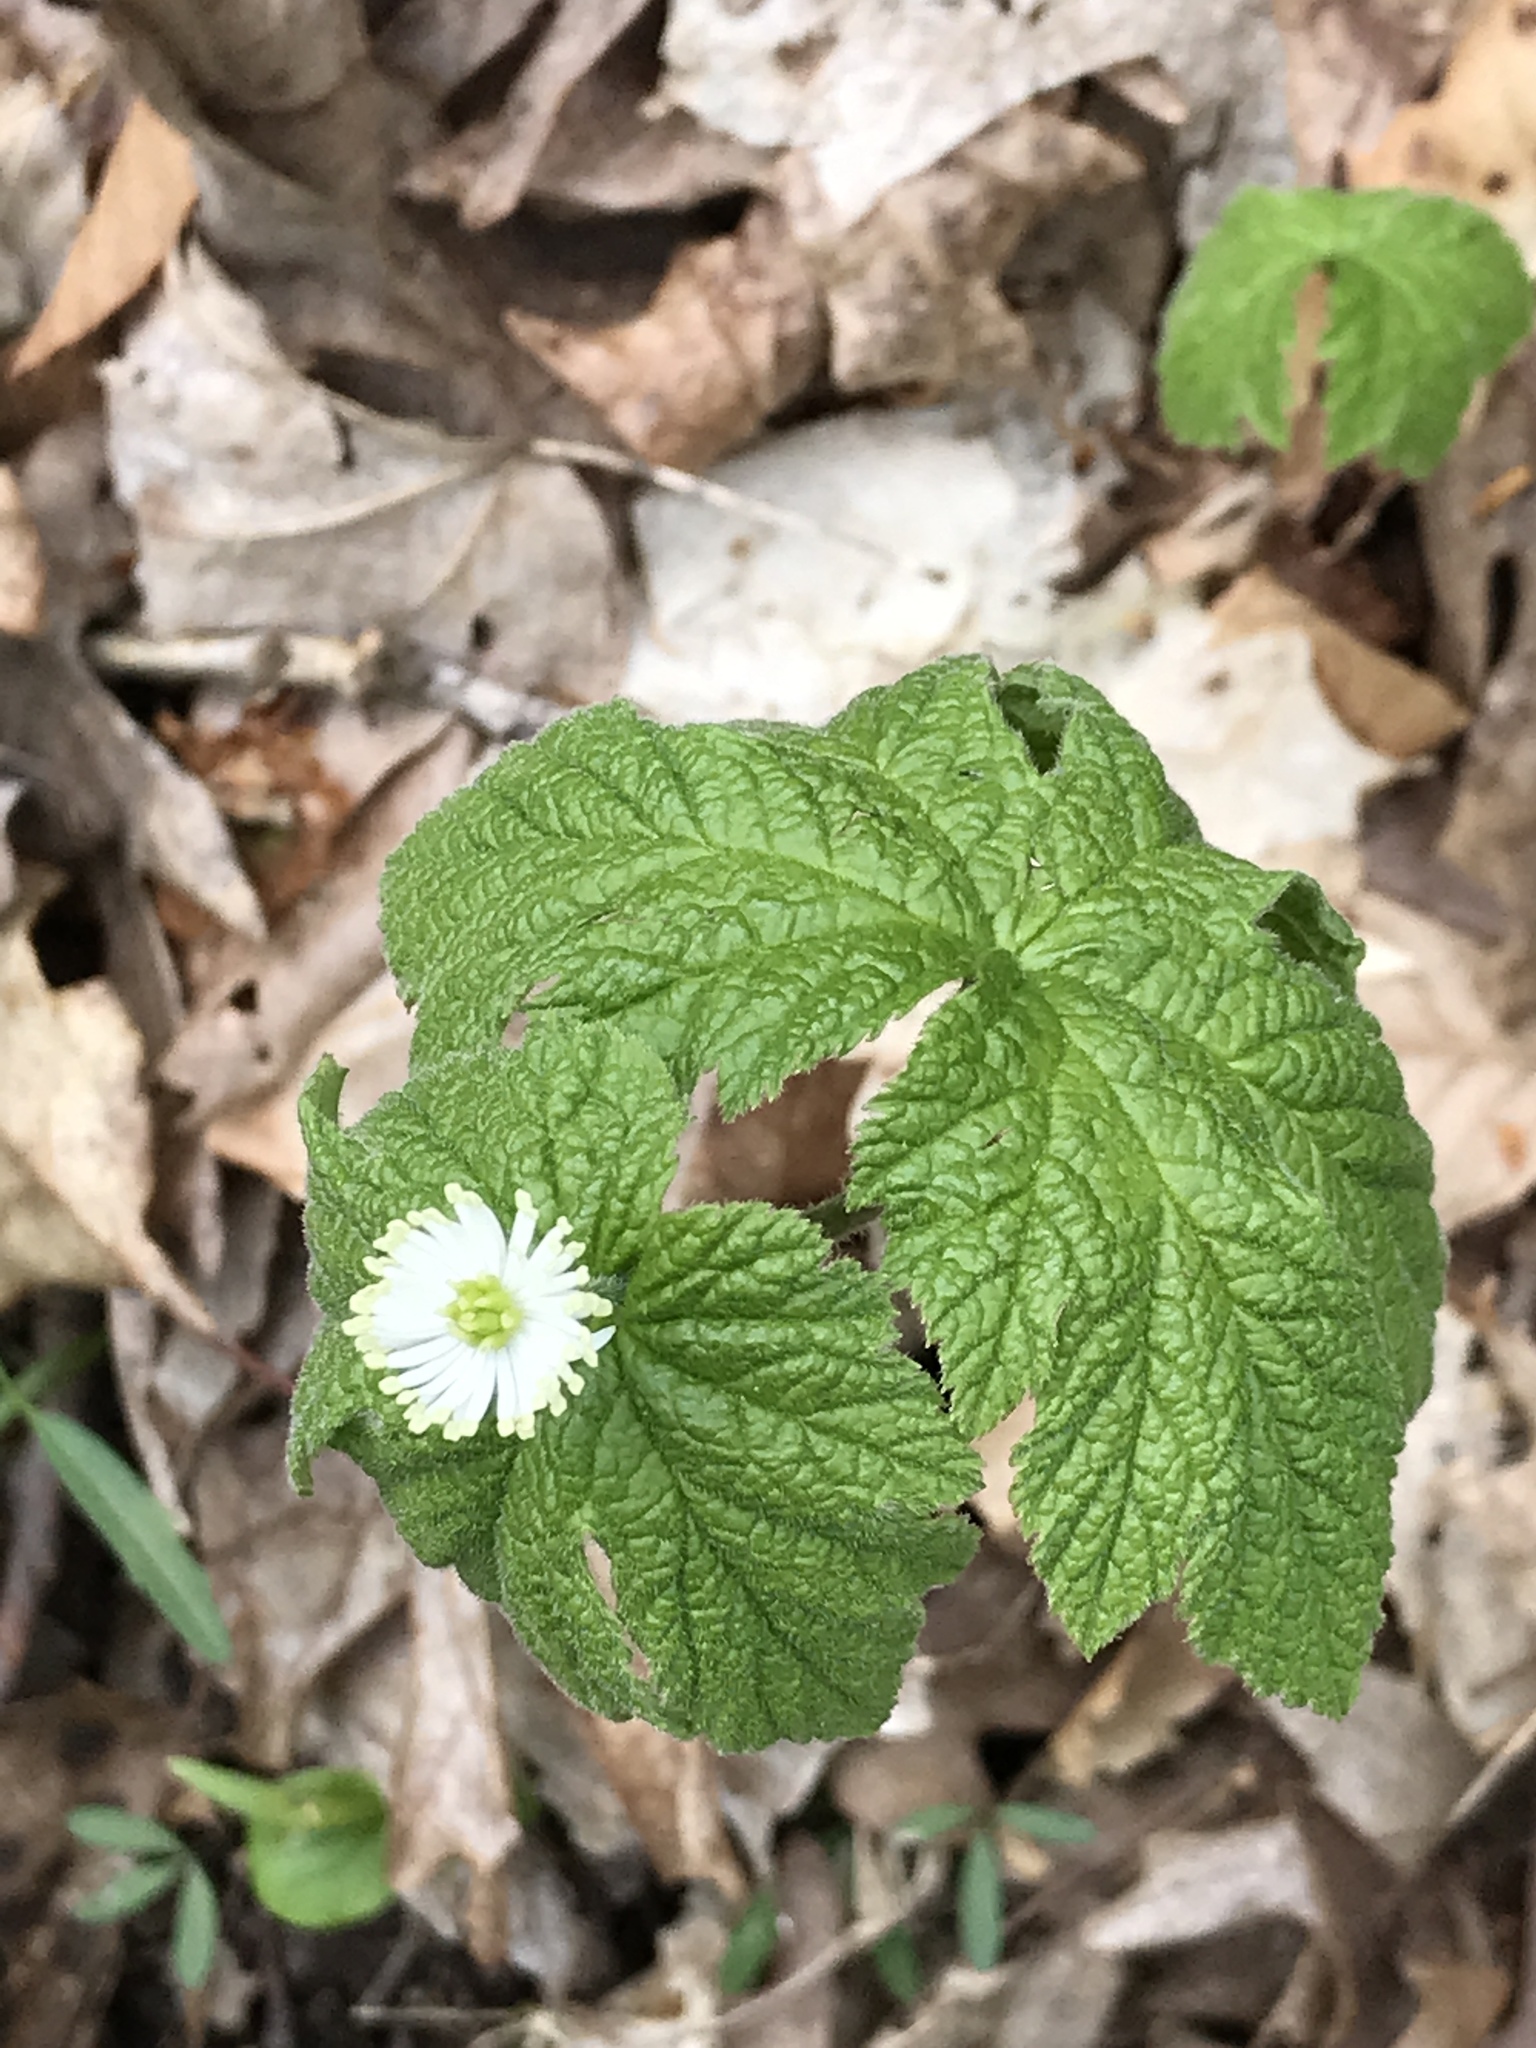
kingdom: Plantae
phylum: Tracheophyta
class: Magnoliopsida
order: Ranunculales
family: Ranunculaceae
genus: Hydrastis
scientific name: Hydrastis canadensis
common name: Goldenseal
